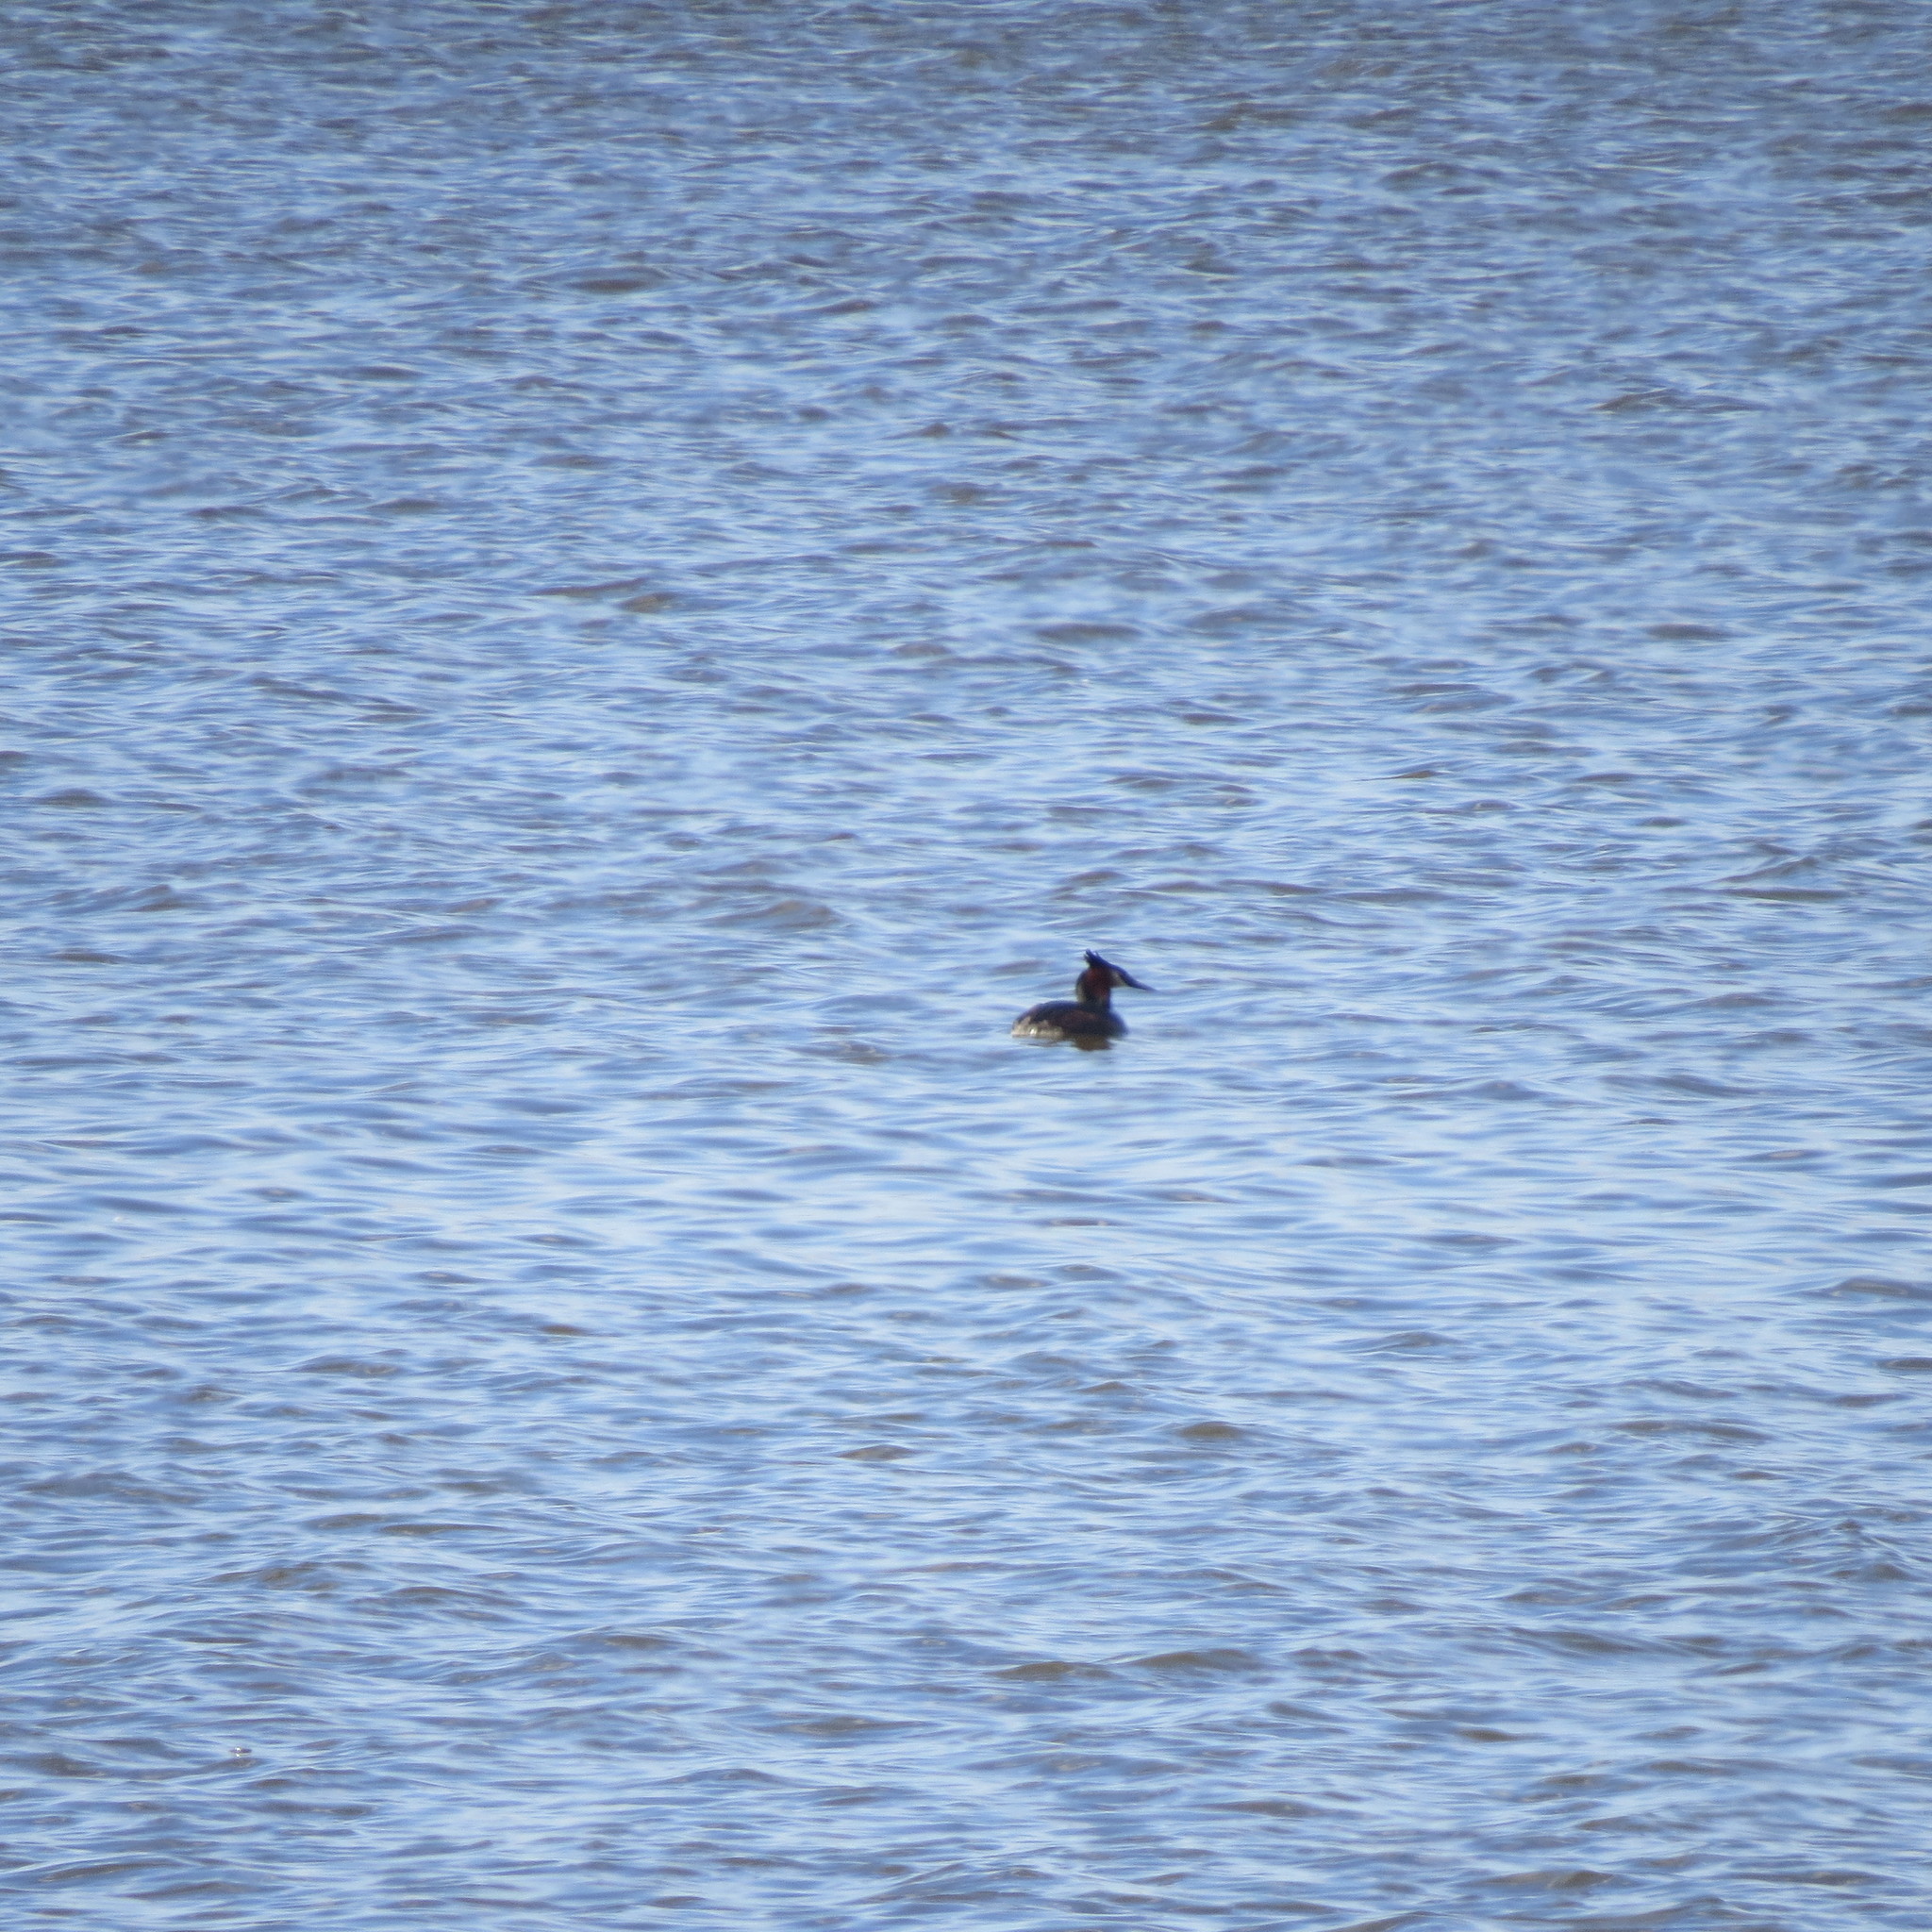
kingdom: Animalia
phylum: Chordata
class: Aves
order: Podicipediformes
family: Podicipedidae
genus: Podiceps
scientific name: Podiceps cristatus
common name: Great crested grebe
